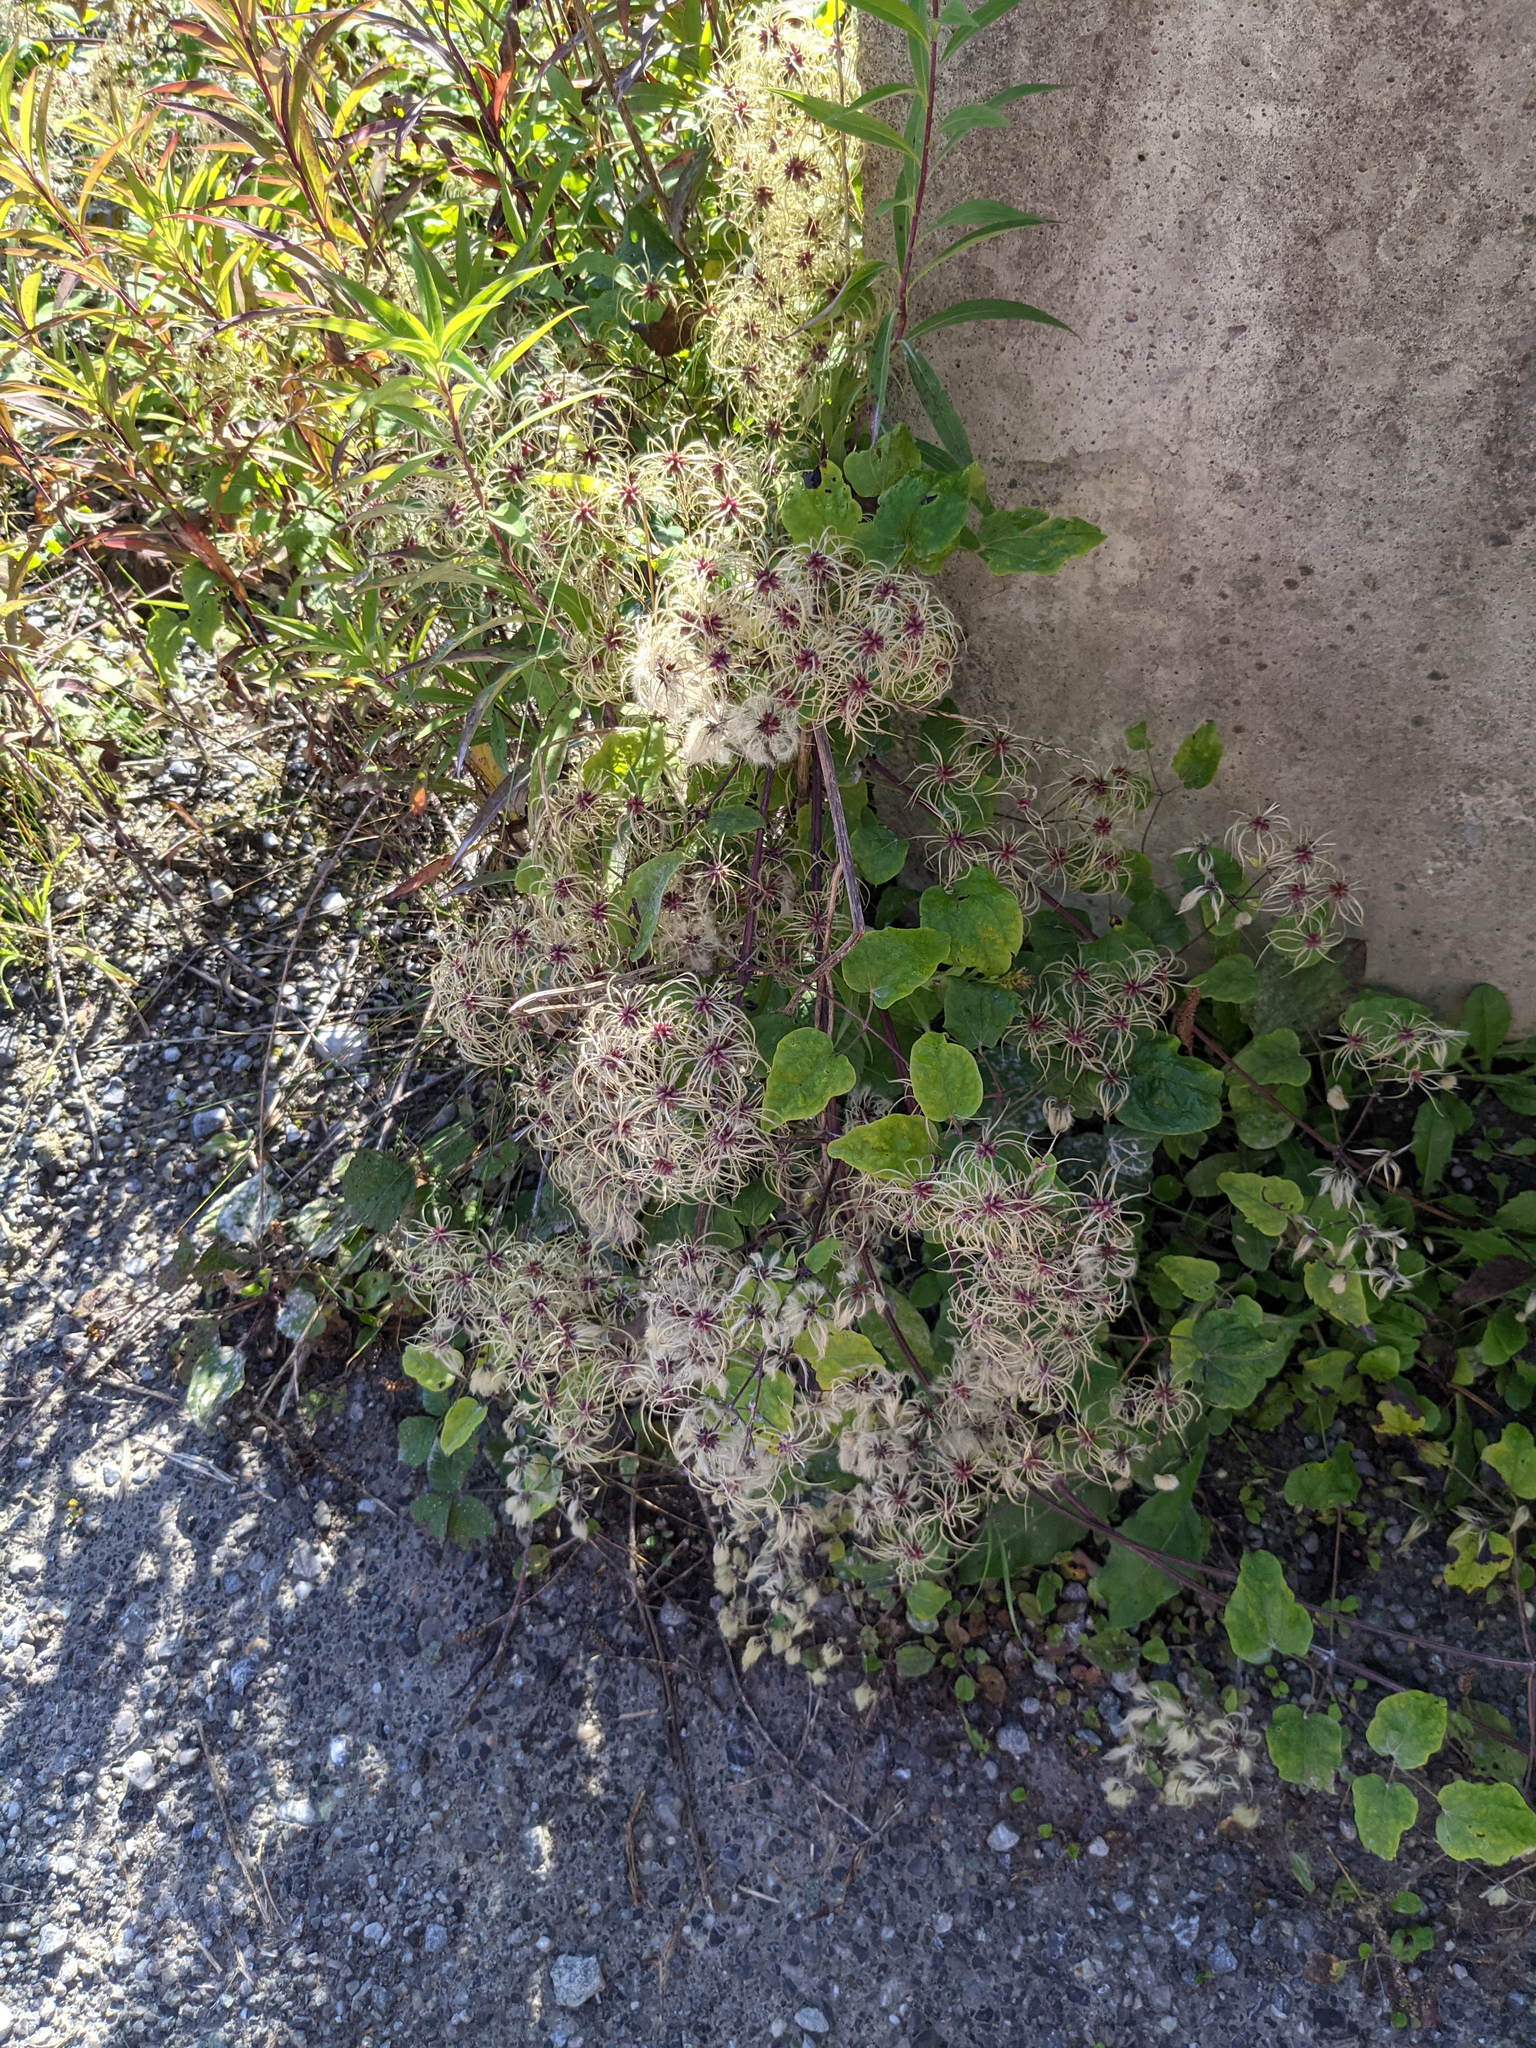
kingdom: Plantae
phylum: Tracheophyta
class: Magnoliopsida
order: Ranunculales
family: Ranunculaceae
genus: Clematis
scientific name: Clematis vitalba
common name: Evergreen clematis
